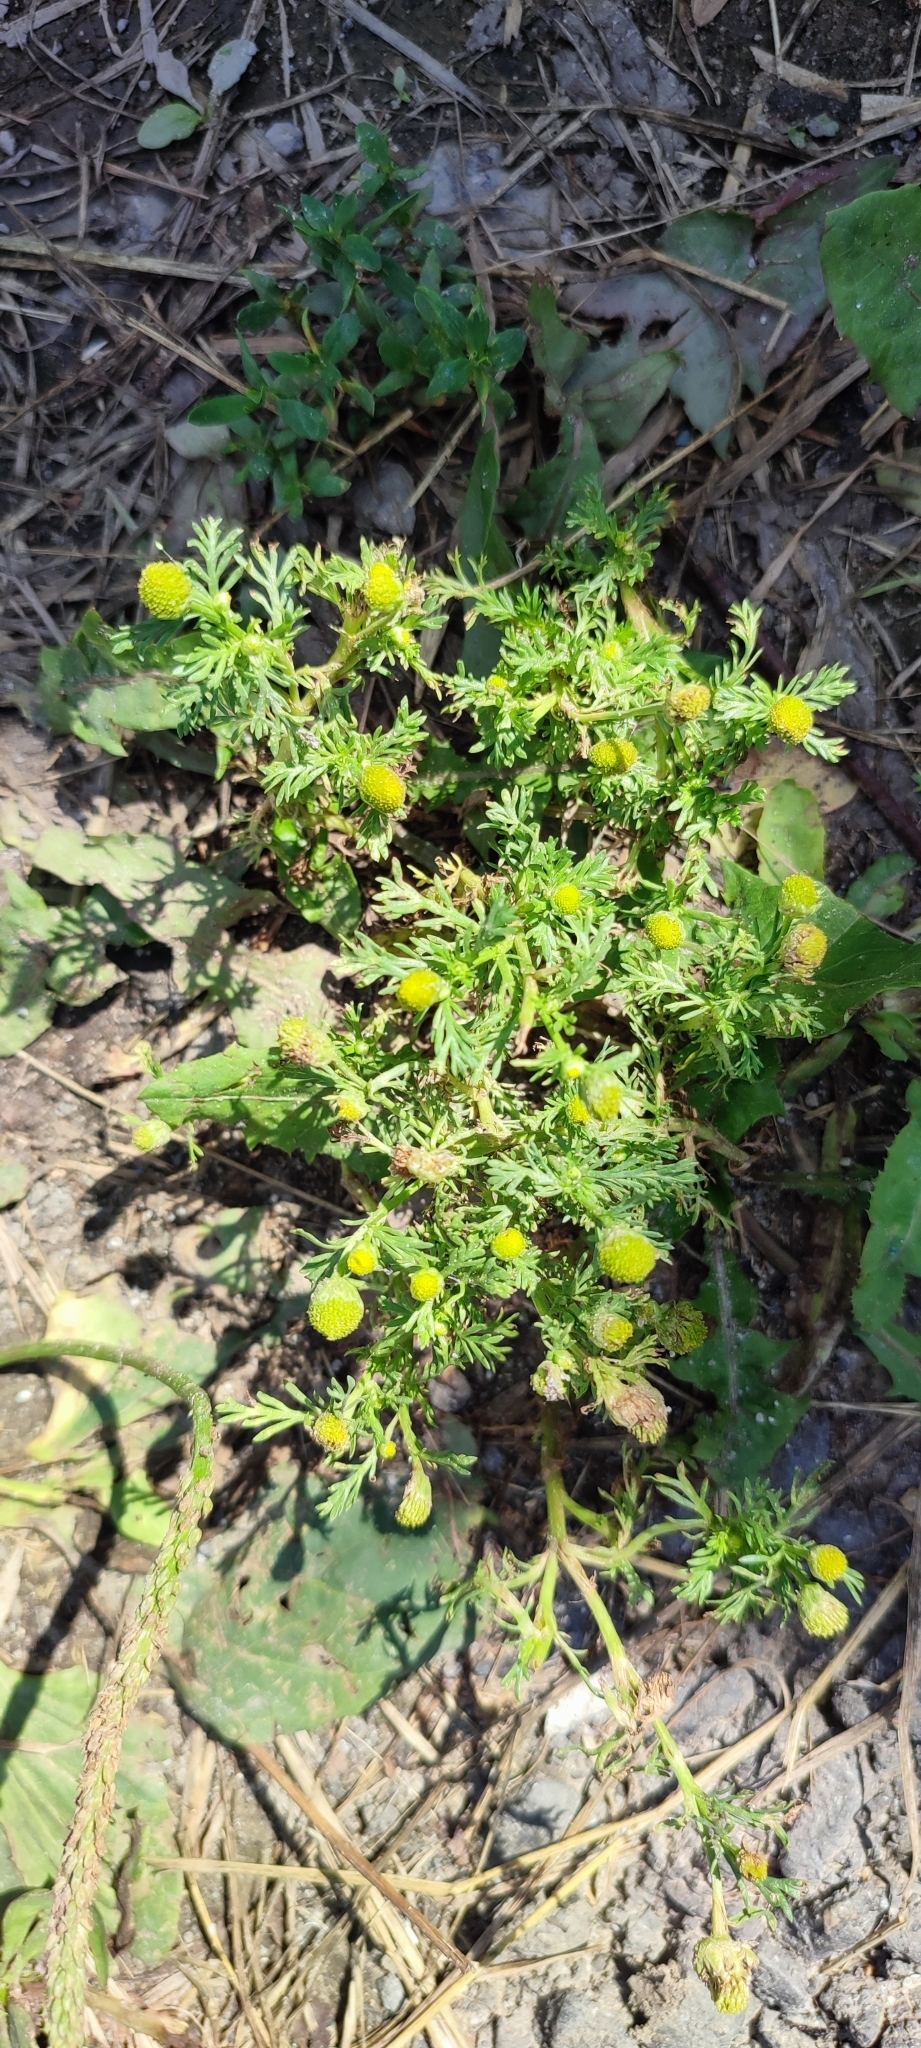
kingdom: Plantae
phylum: Tracheophyta
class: Magnoliopsida
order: Asterales
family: Asteraceae
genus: Matricaria
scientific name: Matricaria discoidea
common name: Disc mayweed
